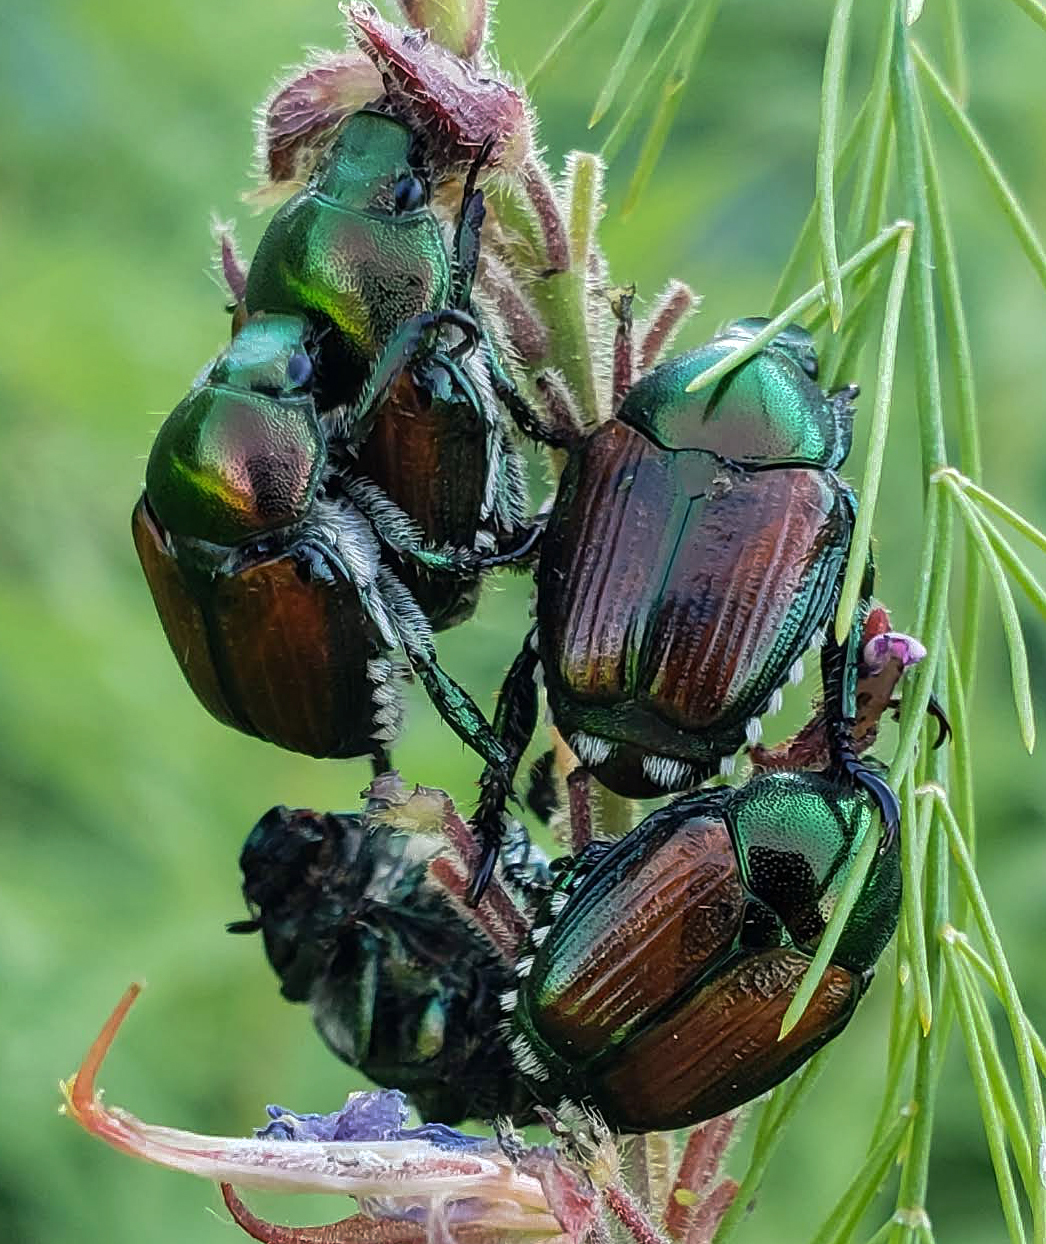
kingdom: Animalia
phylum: Arthropoda
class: Insecta
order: Coleoptera
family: Scarabaeidae
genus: Popillia
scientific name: Popillia japonica
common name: Japanese beetle
